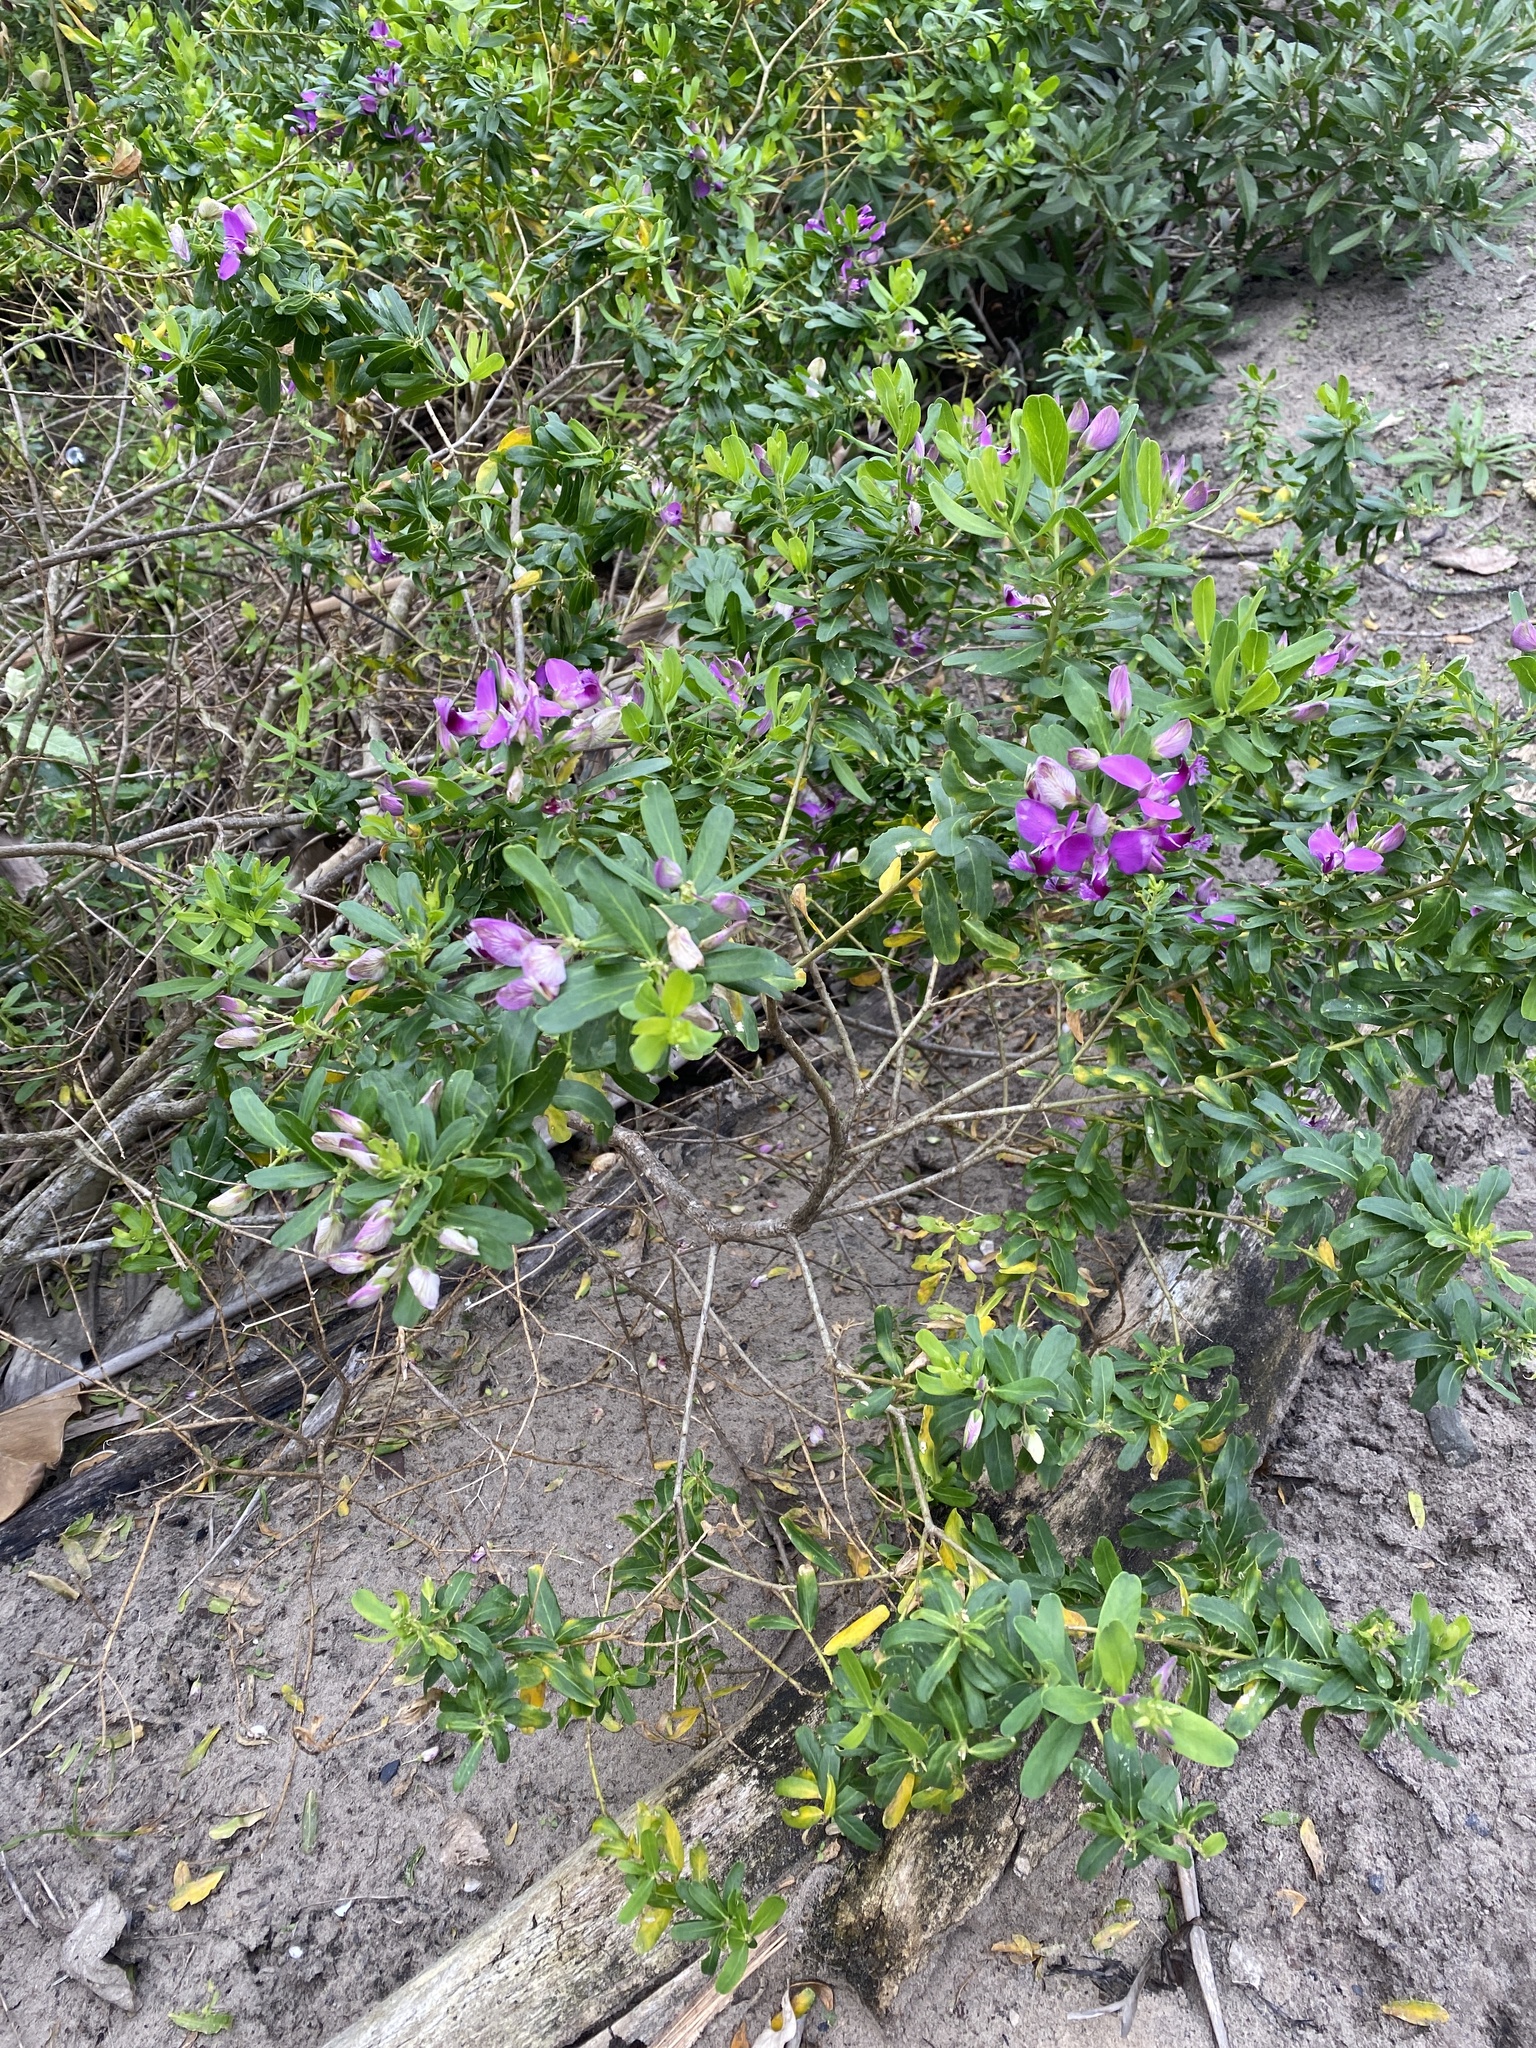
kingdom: Plantae
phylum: Tracheophyta
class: Magnoliopsida
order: Fabales
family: Polygalaceae
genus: Polygala
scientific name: Polygala myrtifolia
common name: Myrtle-leaf milkwort
